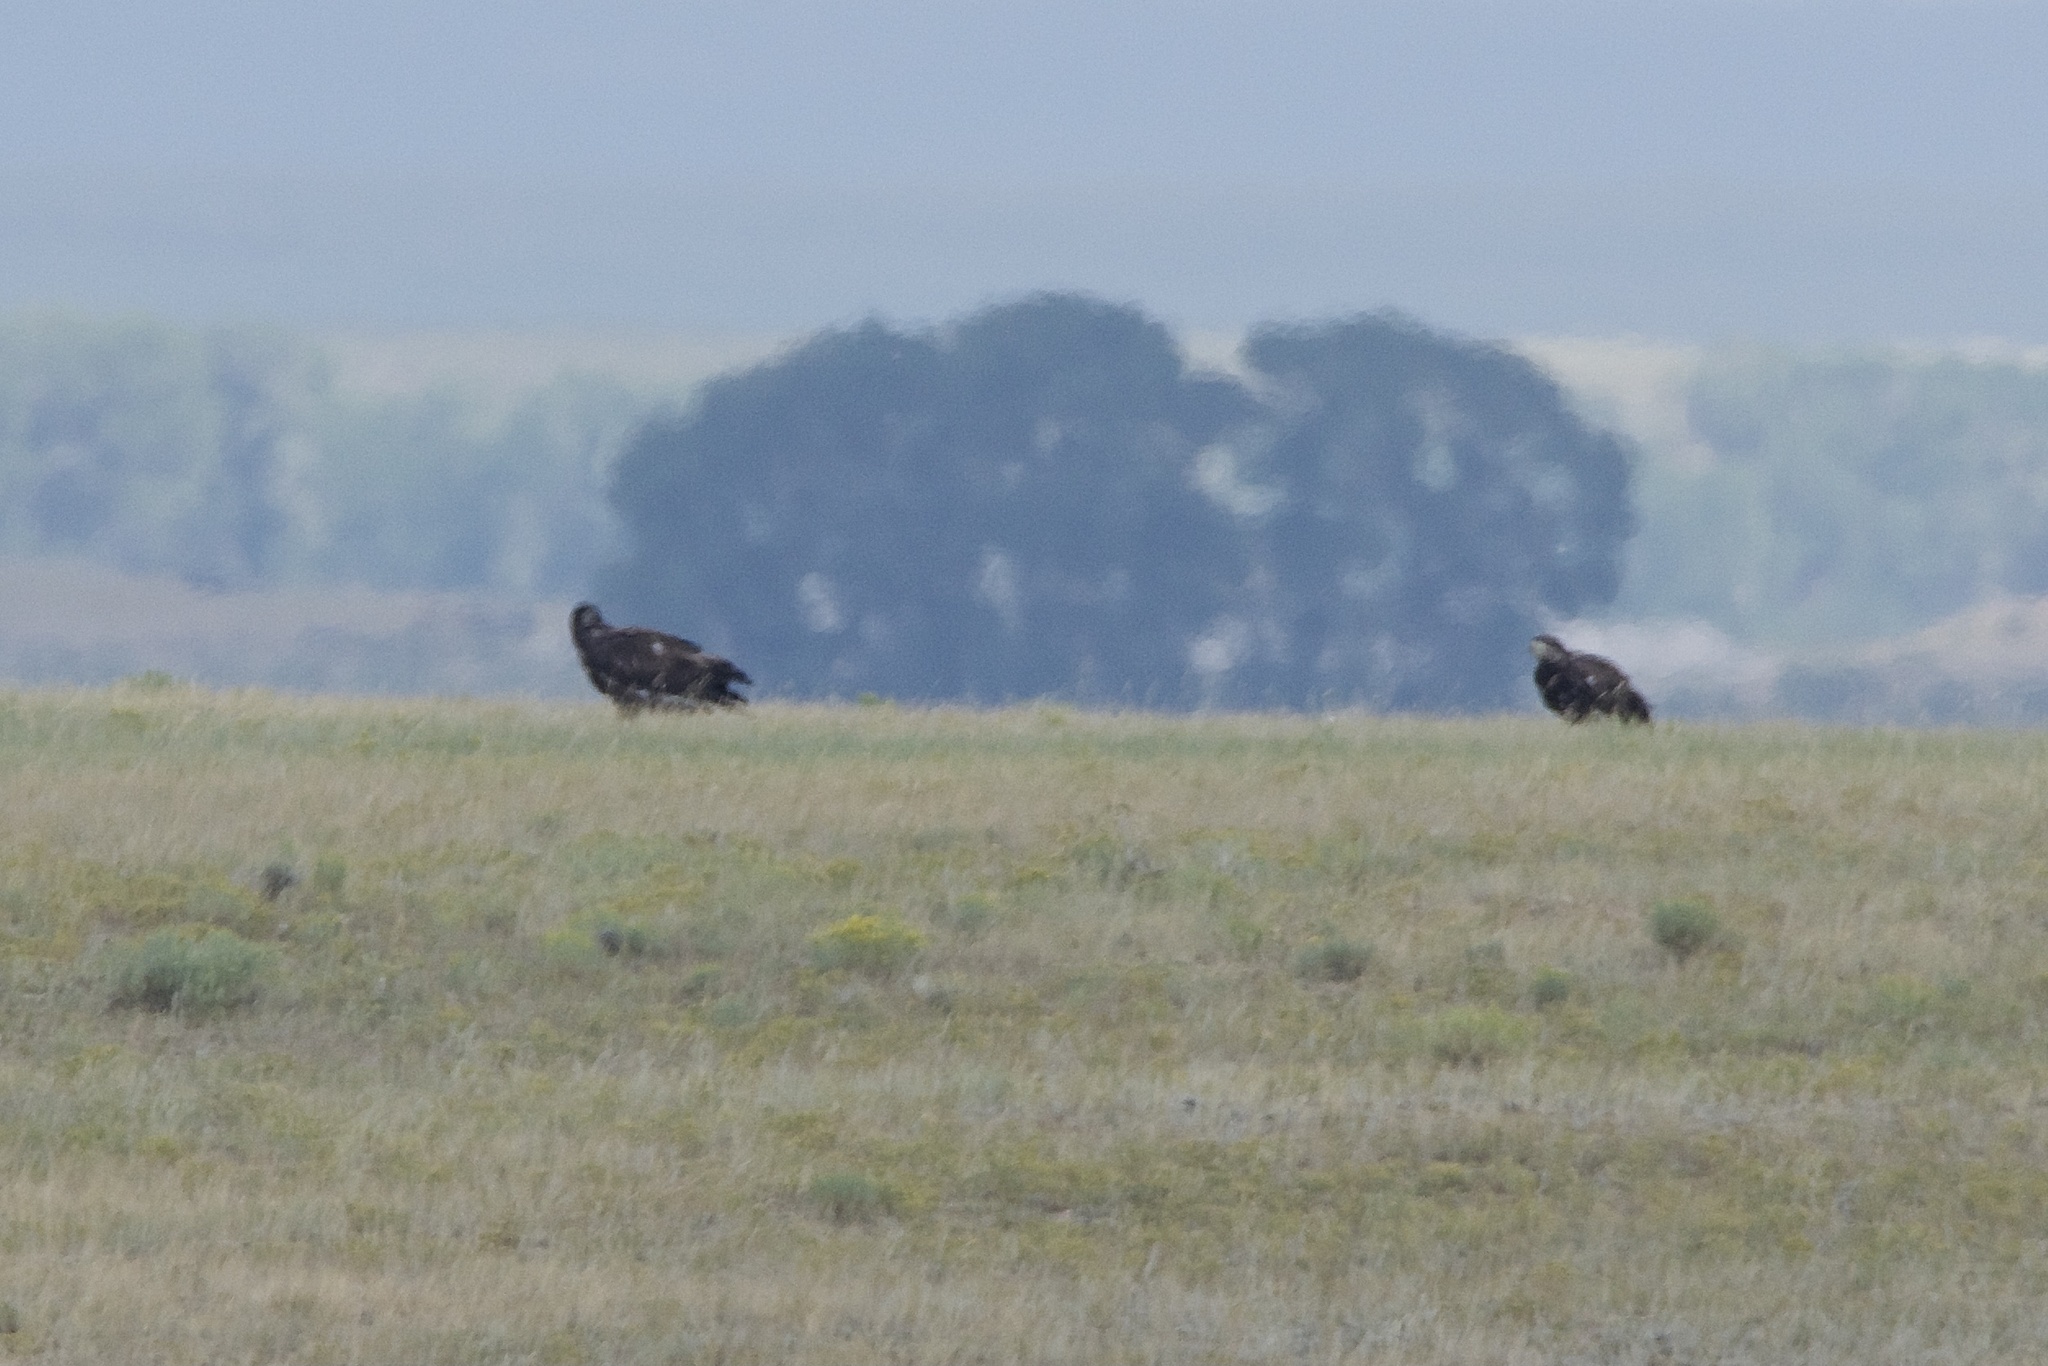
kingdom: Animalia
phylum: Chordata
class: Aves
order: Accipitriformes
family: Accipitridae
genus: Haliaeetus
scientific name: Haliaeetus leucocephalus
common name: Bald eagle
